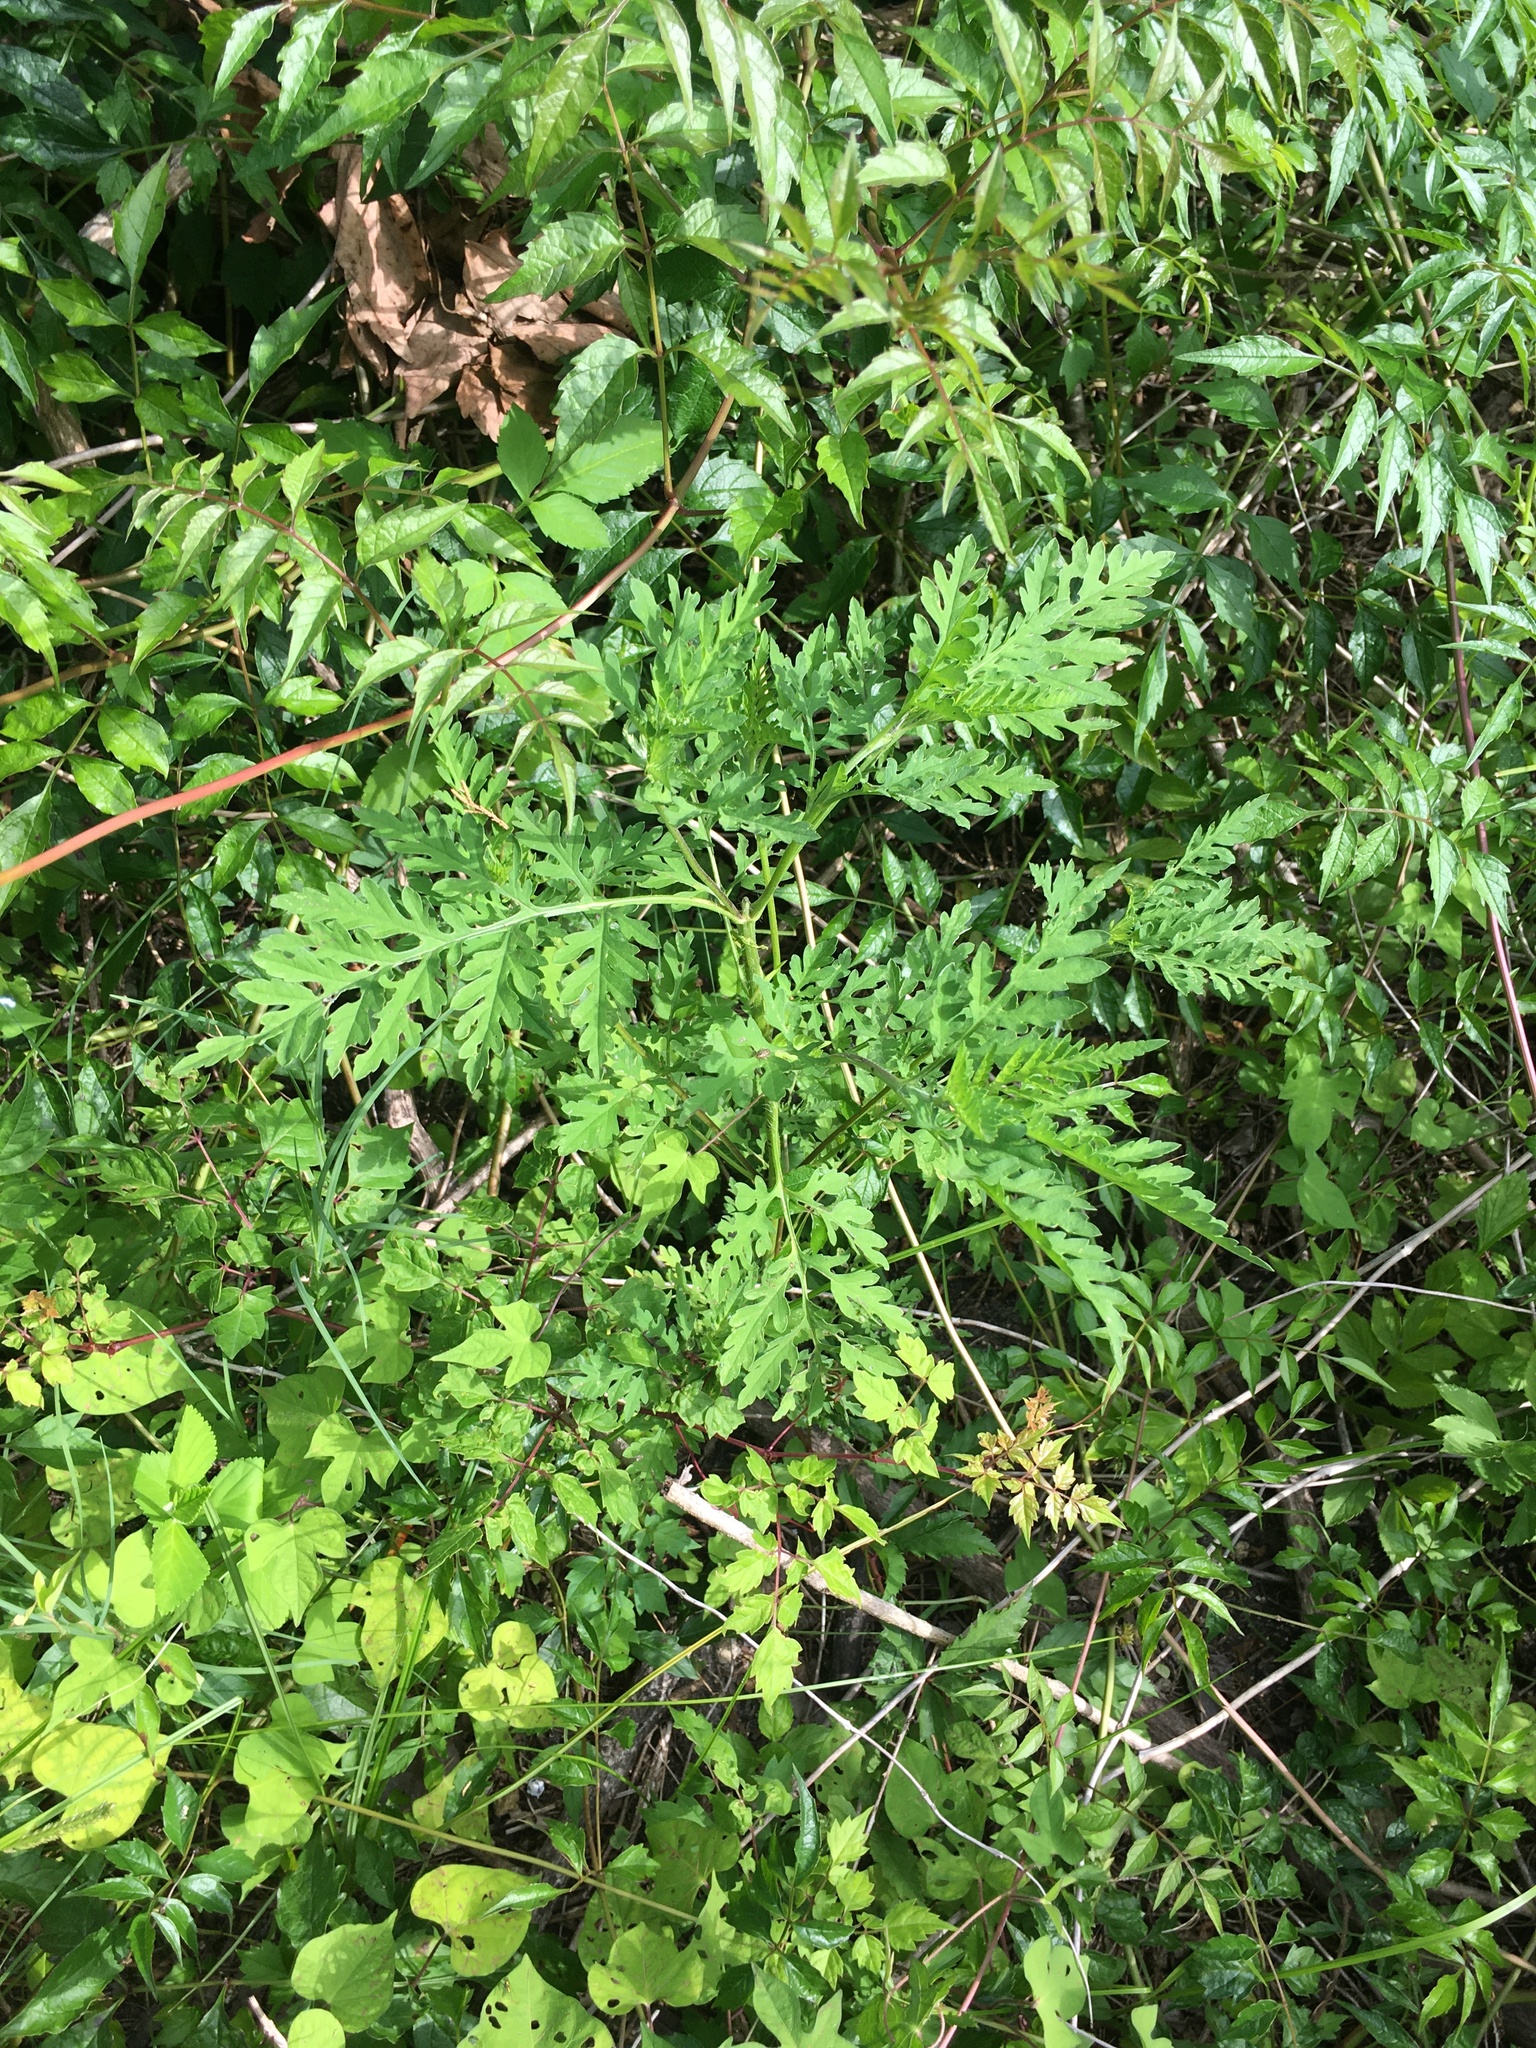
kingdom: Plantae
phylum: Tracheophyta
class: Magnoliopsida
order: Asterales
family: Asteraceae
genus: Ambrosia
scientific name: Ambrosia artemisiifolia
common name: Annual ragweed
